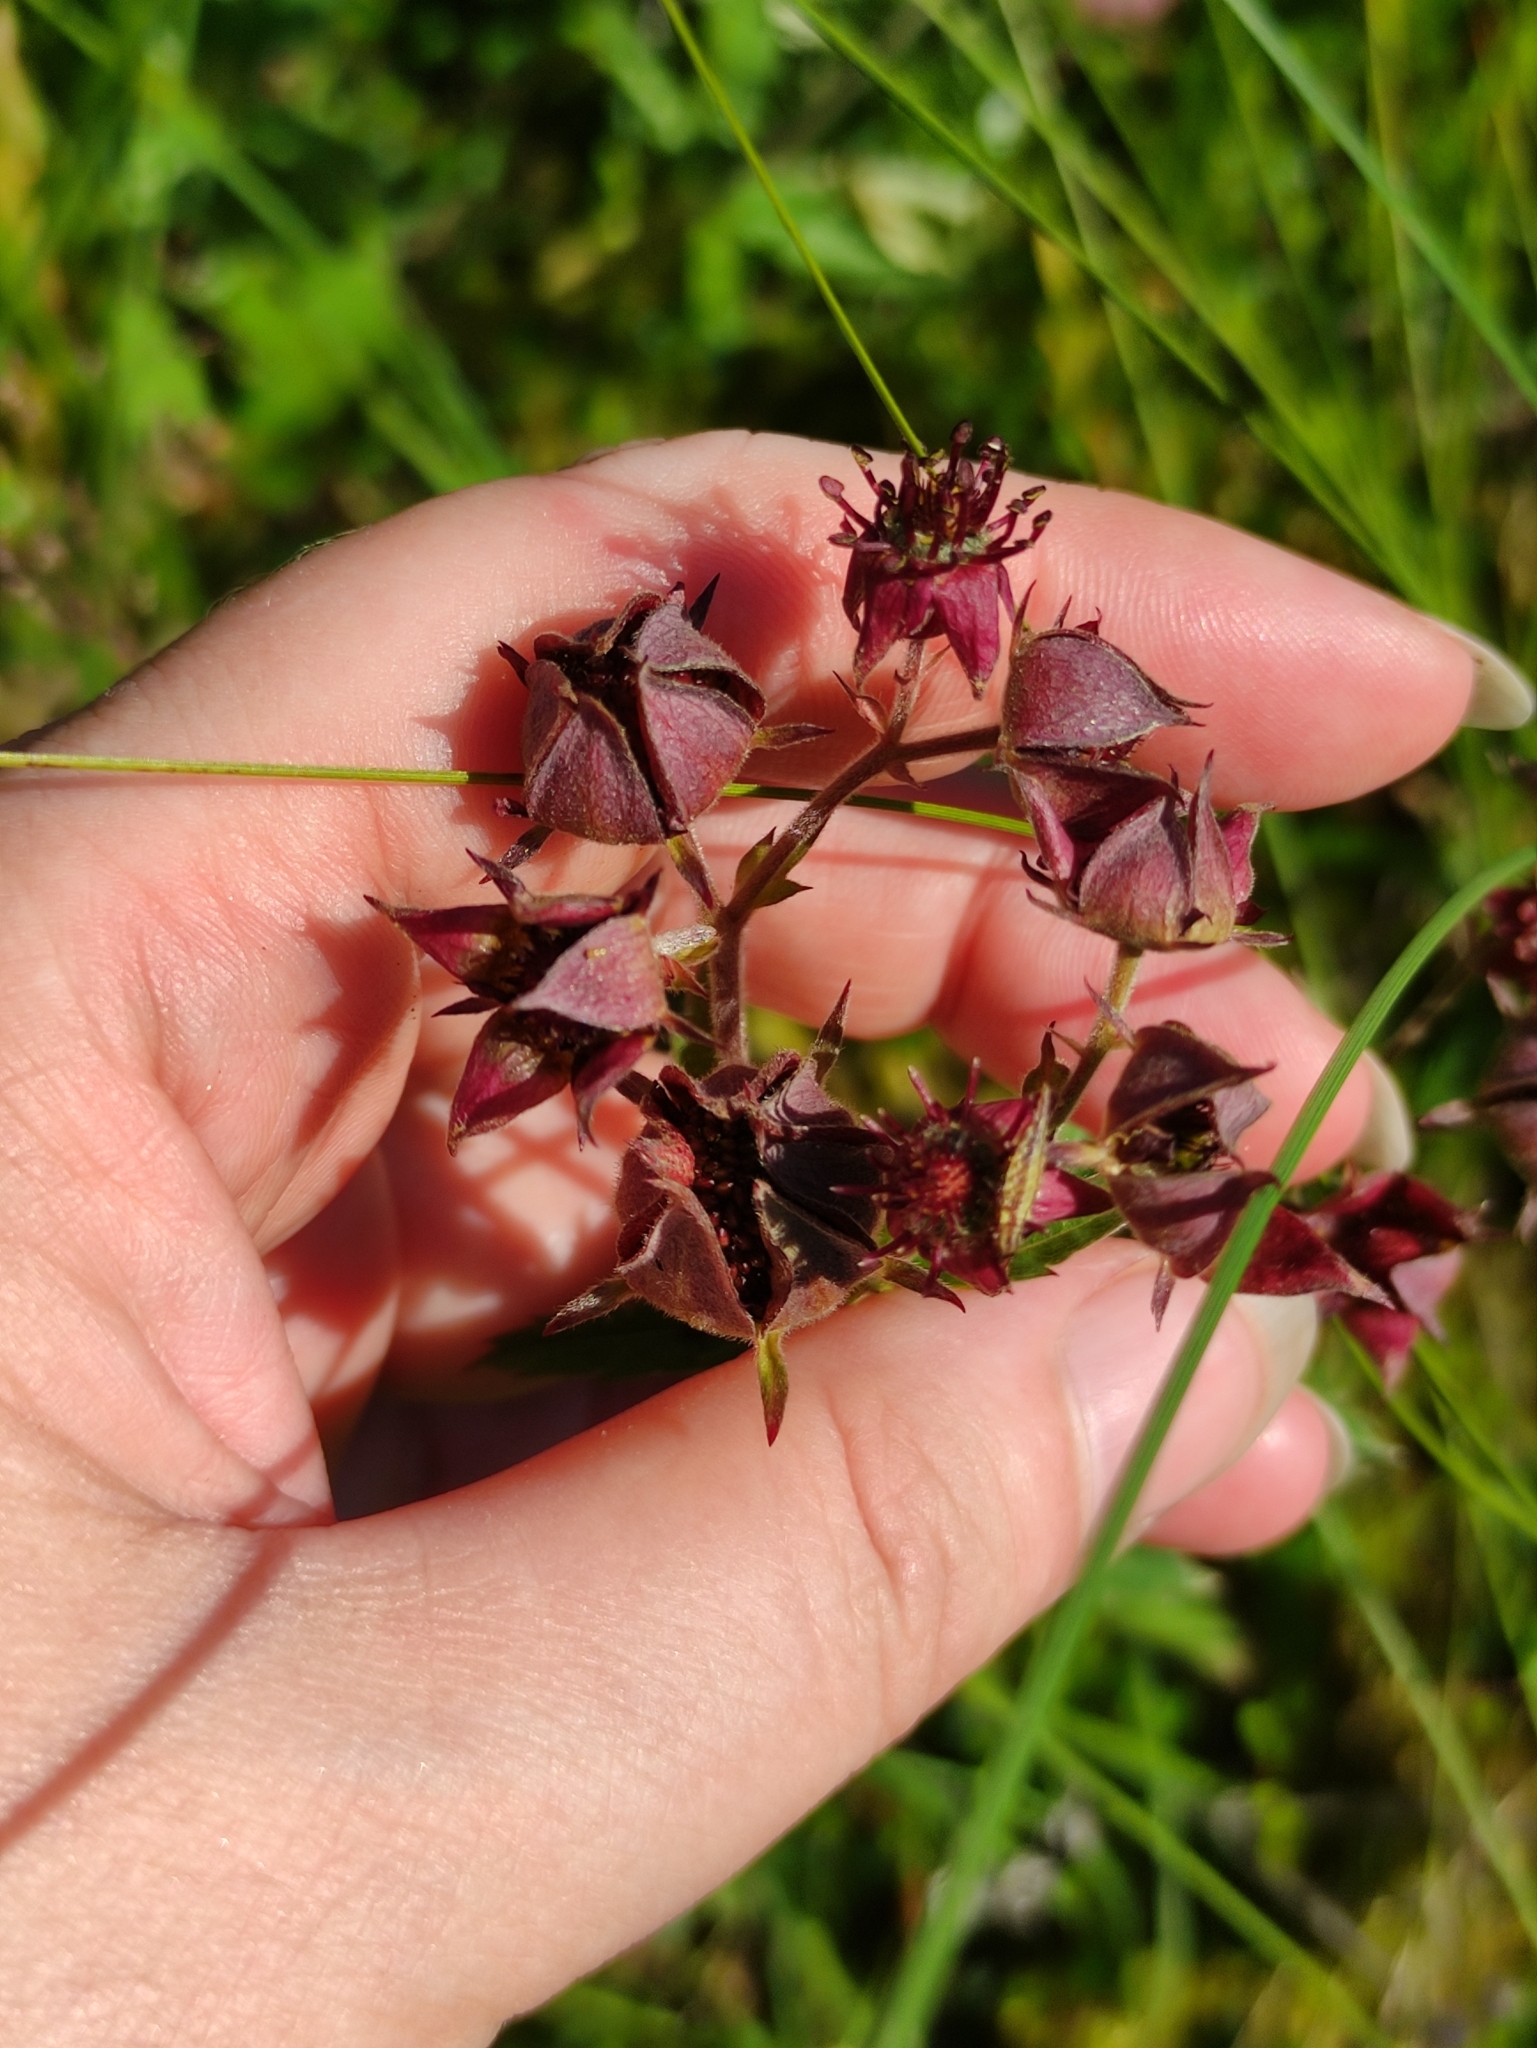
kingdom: Plantae
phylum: Tracheophyta
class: Magnoliopsida
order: Rosales
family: Rosaceae
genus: Comarum
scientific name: Comarum palustre
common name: Marsh cinquefoil
